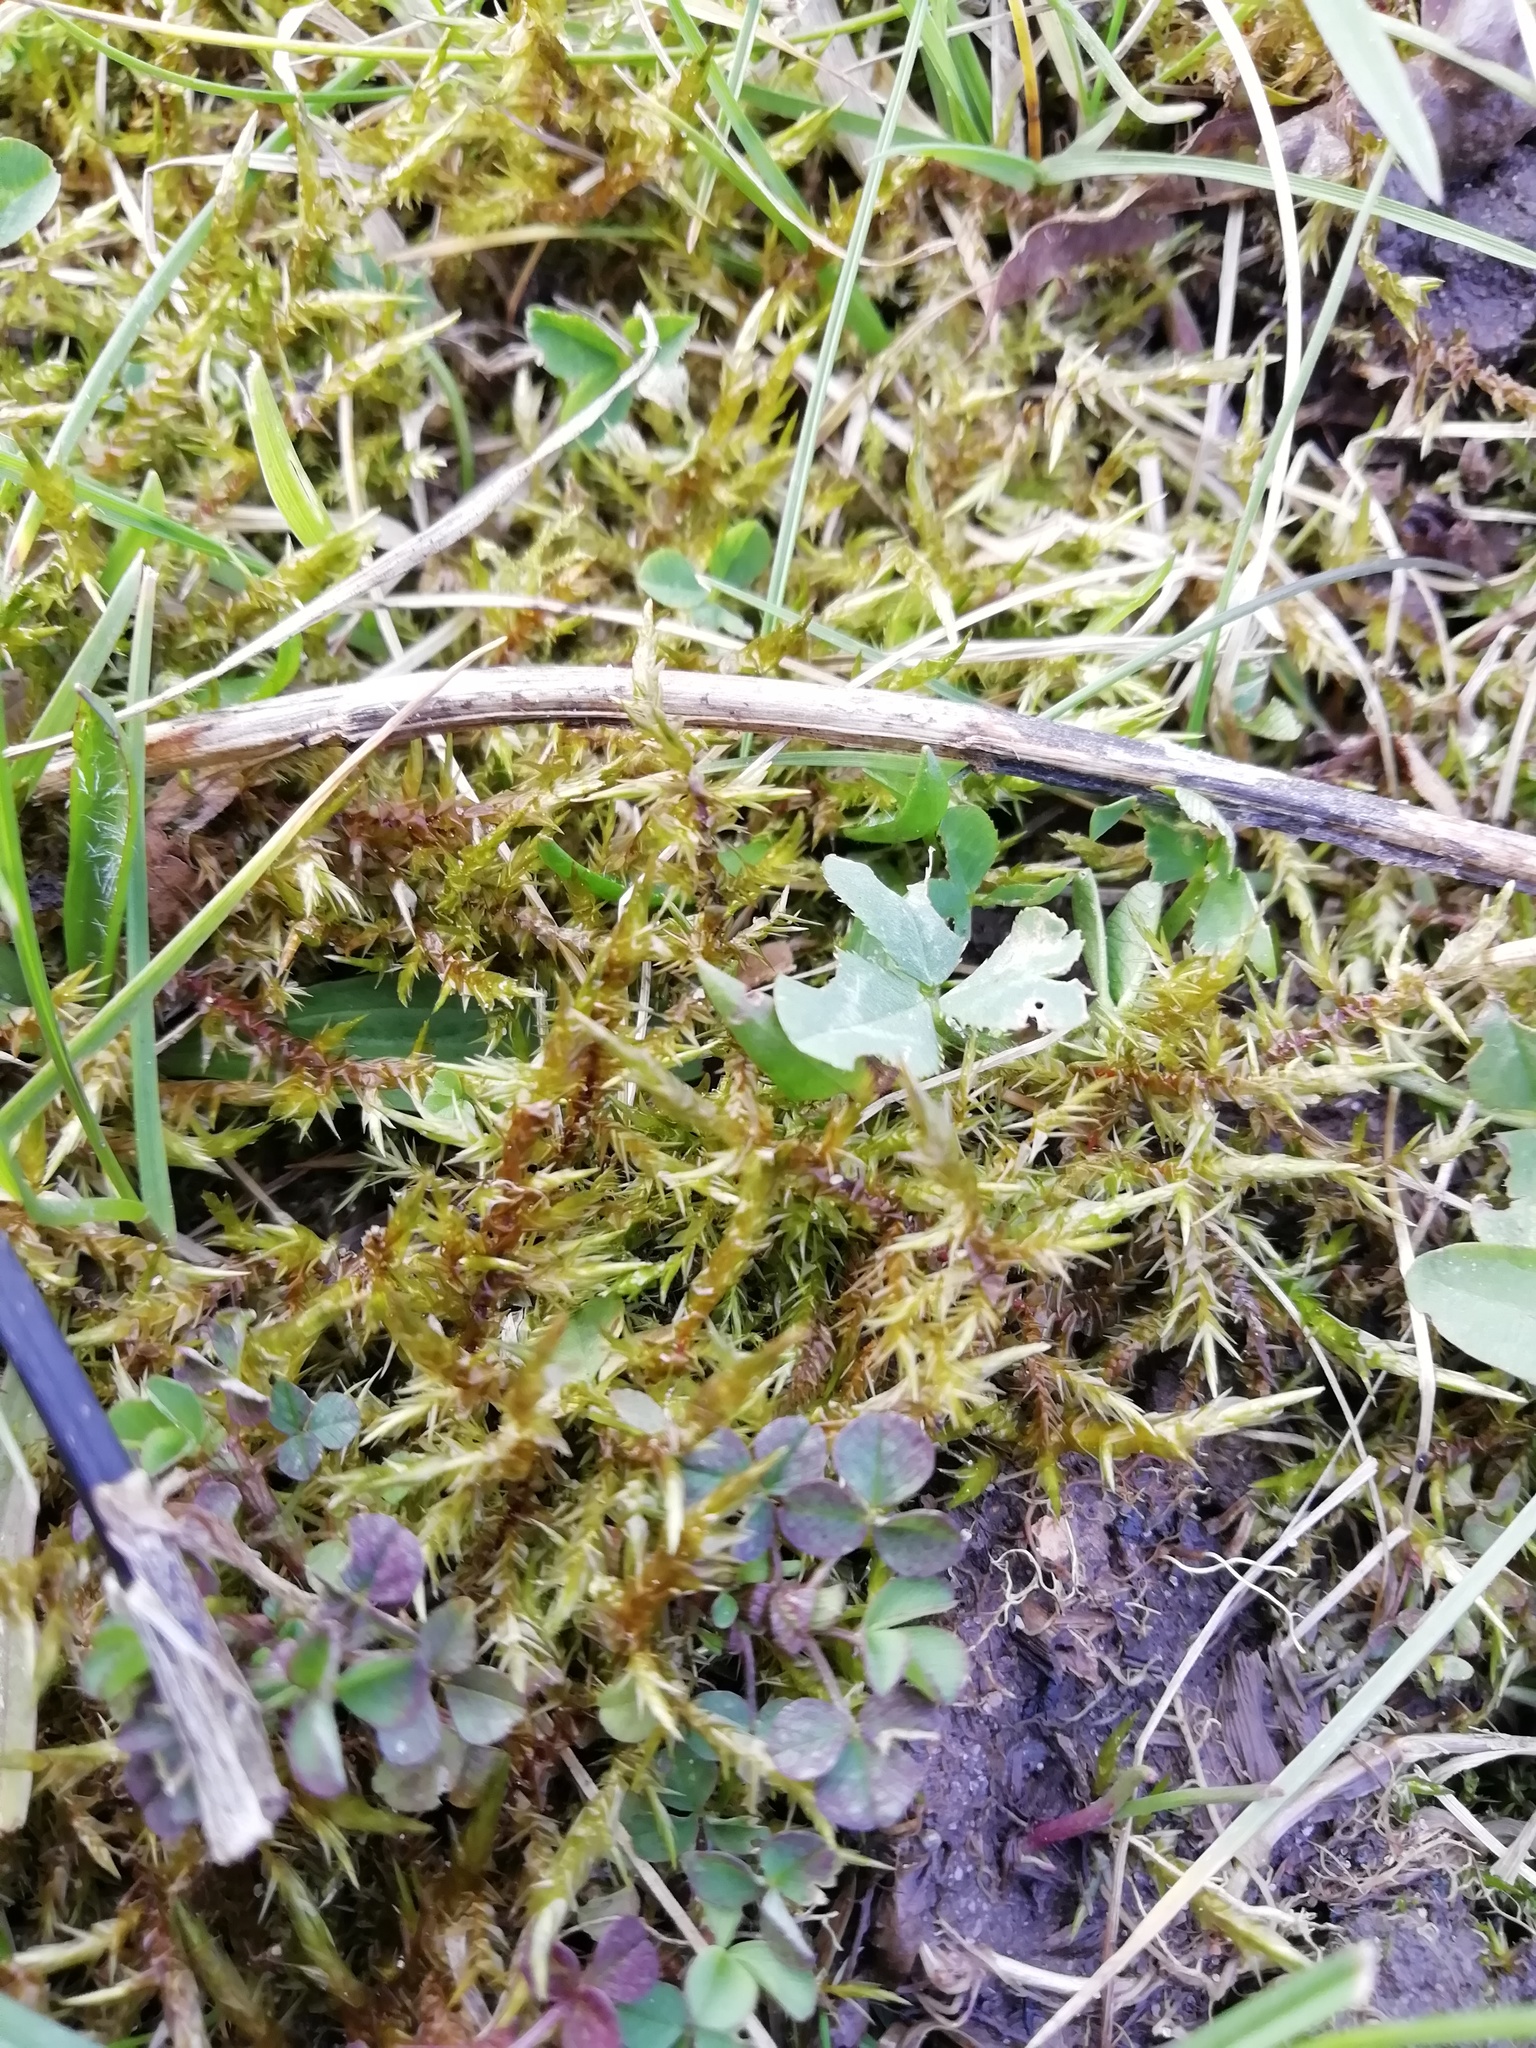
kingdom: Plantae
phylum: Bryophyta
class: Bryopsida
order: Hypnales
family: Pylaisiaceae
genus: Calliergonella
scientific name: Calliergonella cuspidata
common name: Common large wetland moss
